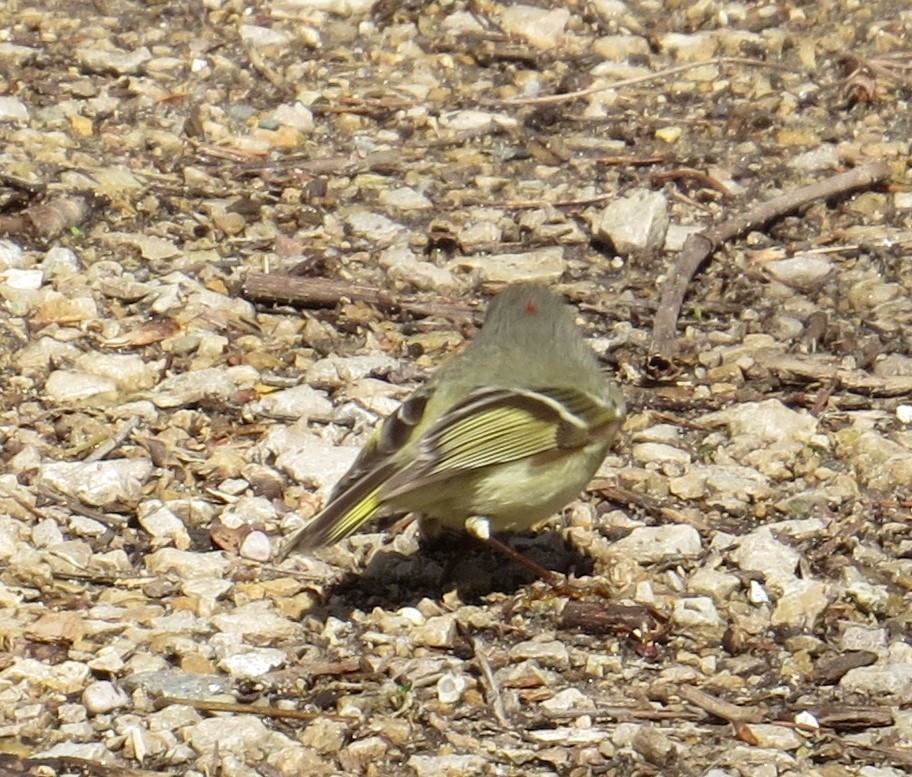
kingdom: Animalia
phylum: Chordata
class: Aves
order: Passeriformes
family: Regulidae
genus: Regulus
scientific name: Regulus calendula
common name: Ruby-crowned kinglet
